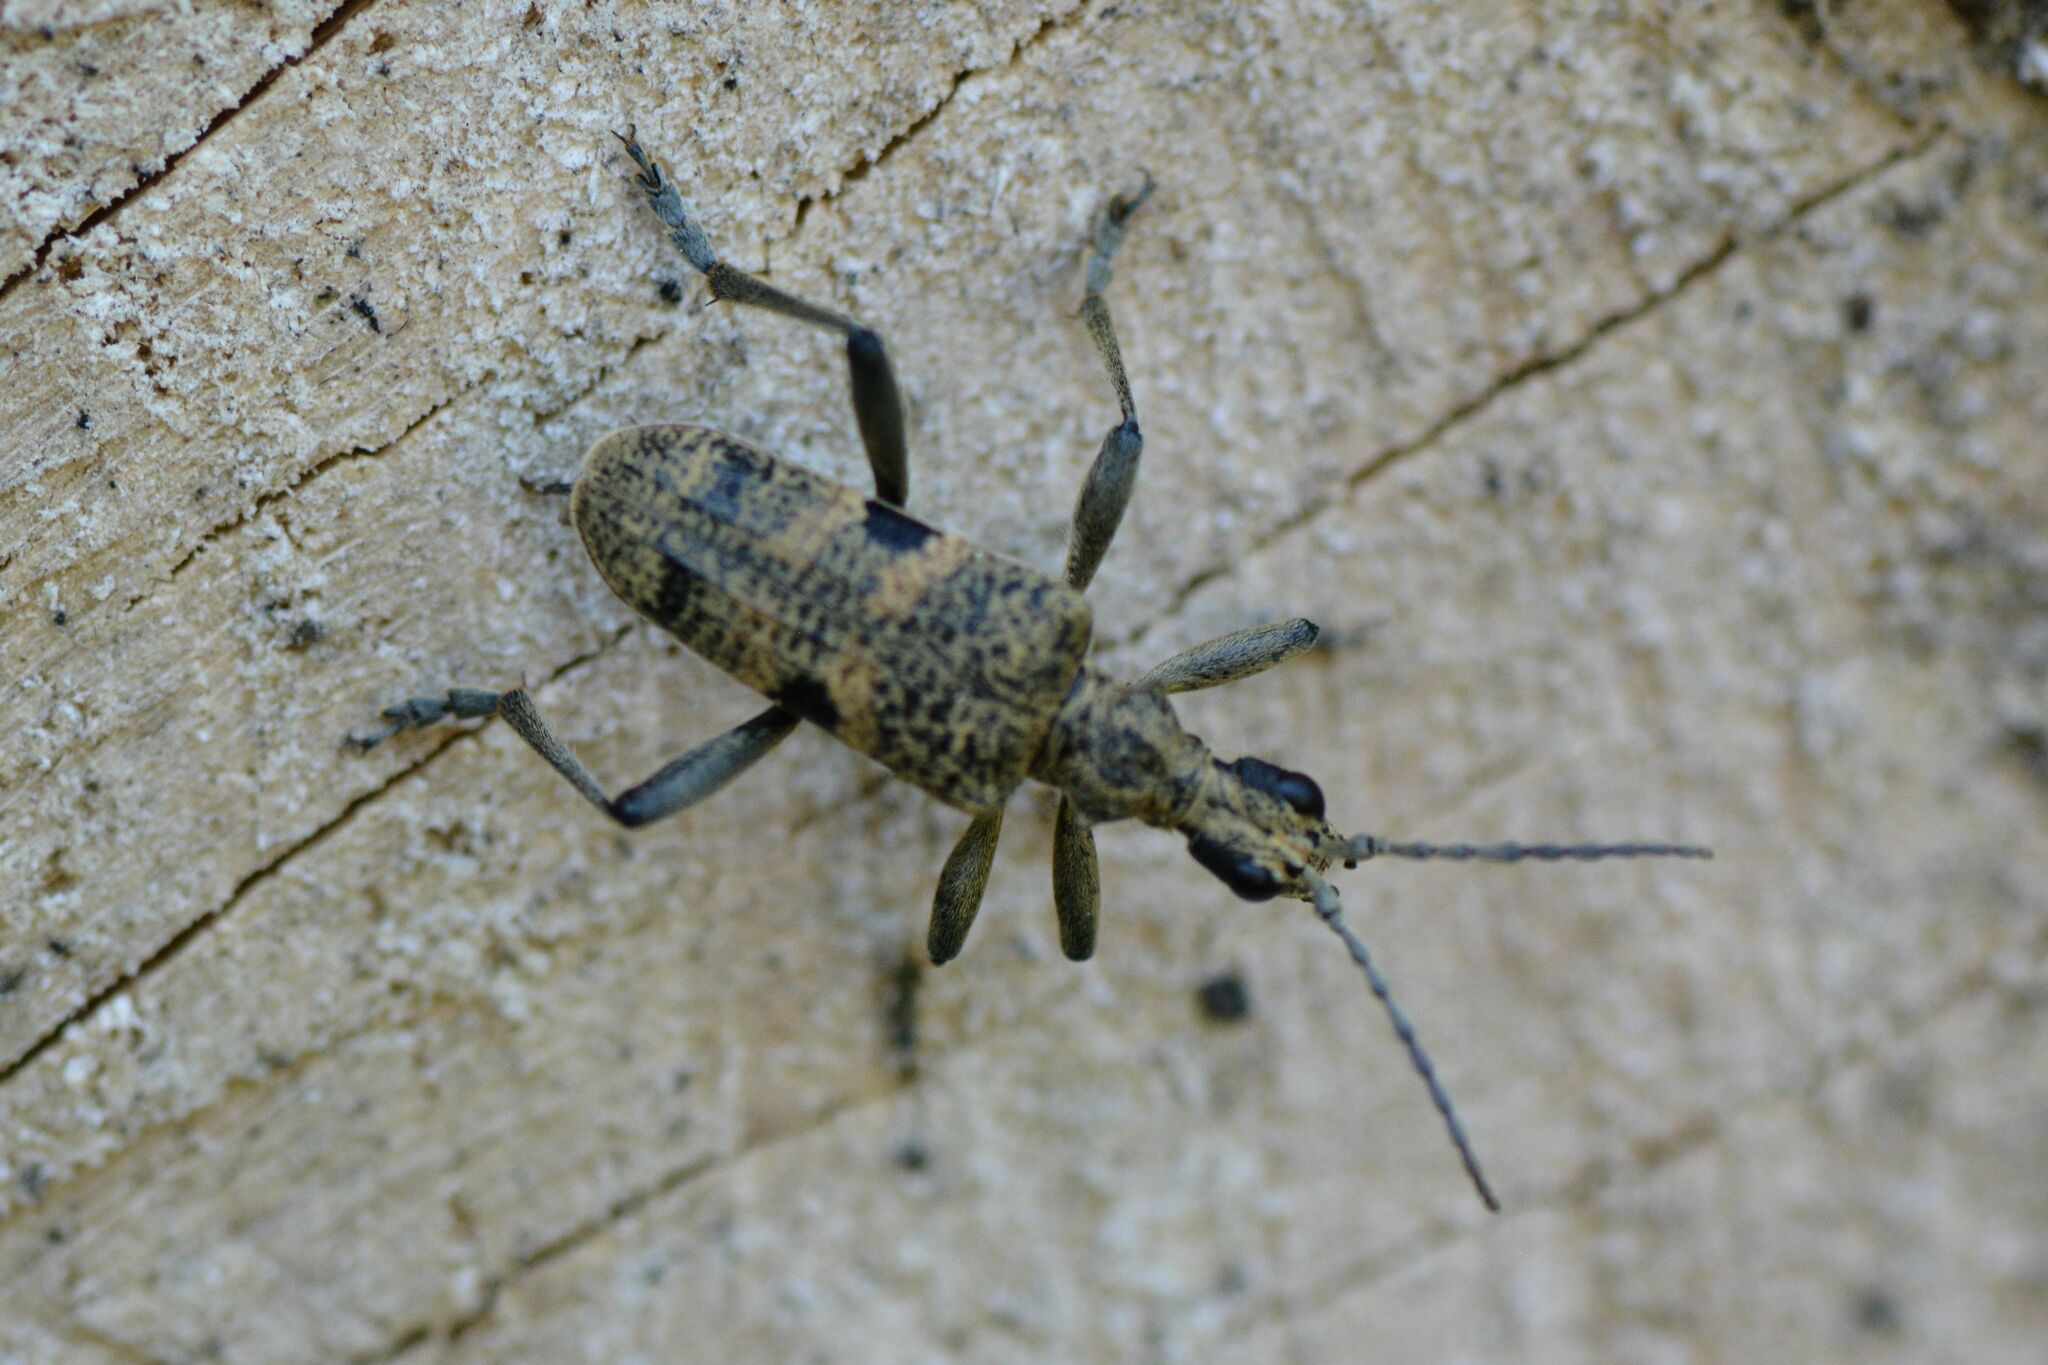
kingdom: Animalia
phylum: Arthropoda
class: Insecta
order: Coleoptera
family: Cerambycidae
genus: Rhagium
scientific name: Rhagium mordax
